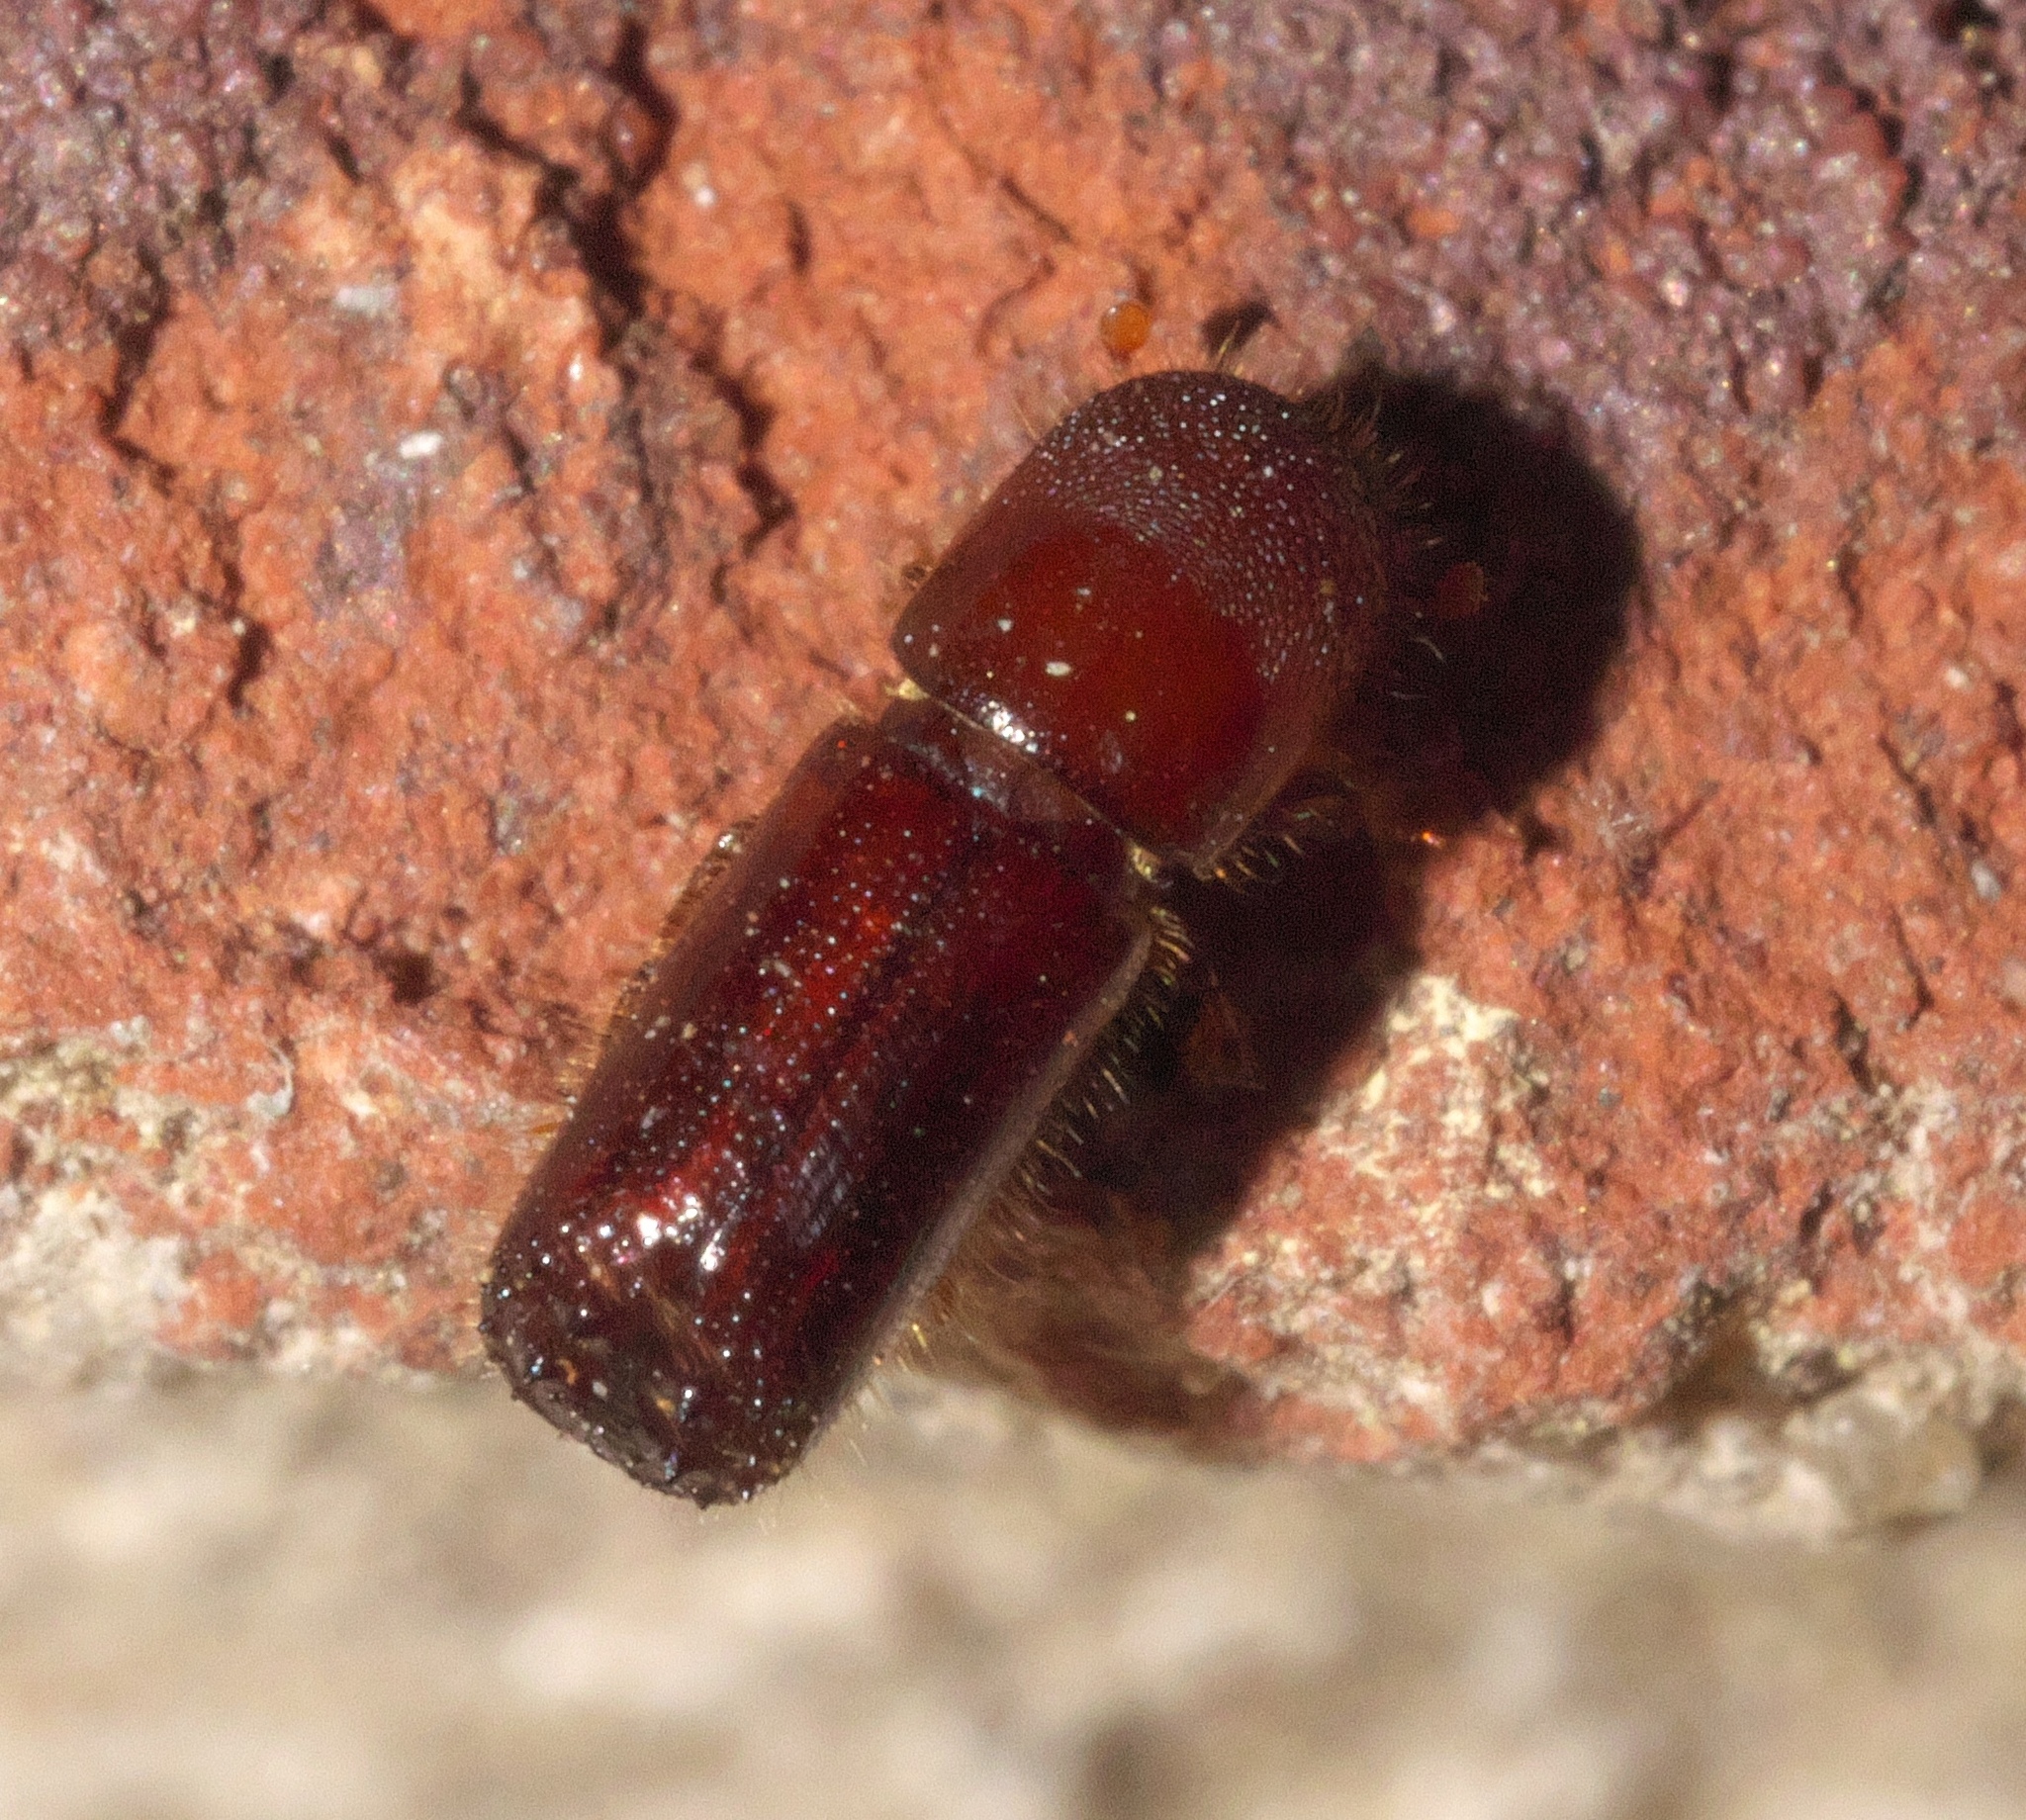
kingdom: Animalia
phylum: Arthropoda
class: Insecta
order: Coleoptera
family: Curculionidae
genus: Xyleborus
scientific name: Xyleborus celsus
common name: Weevil
